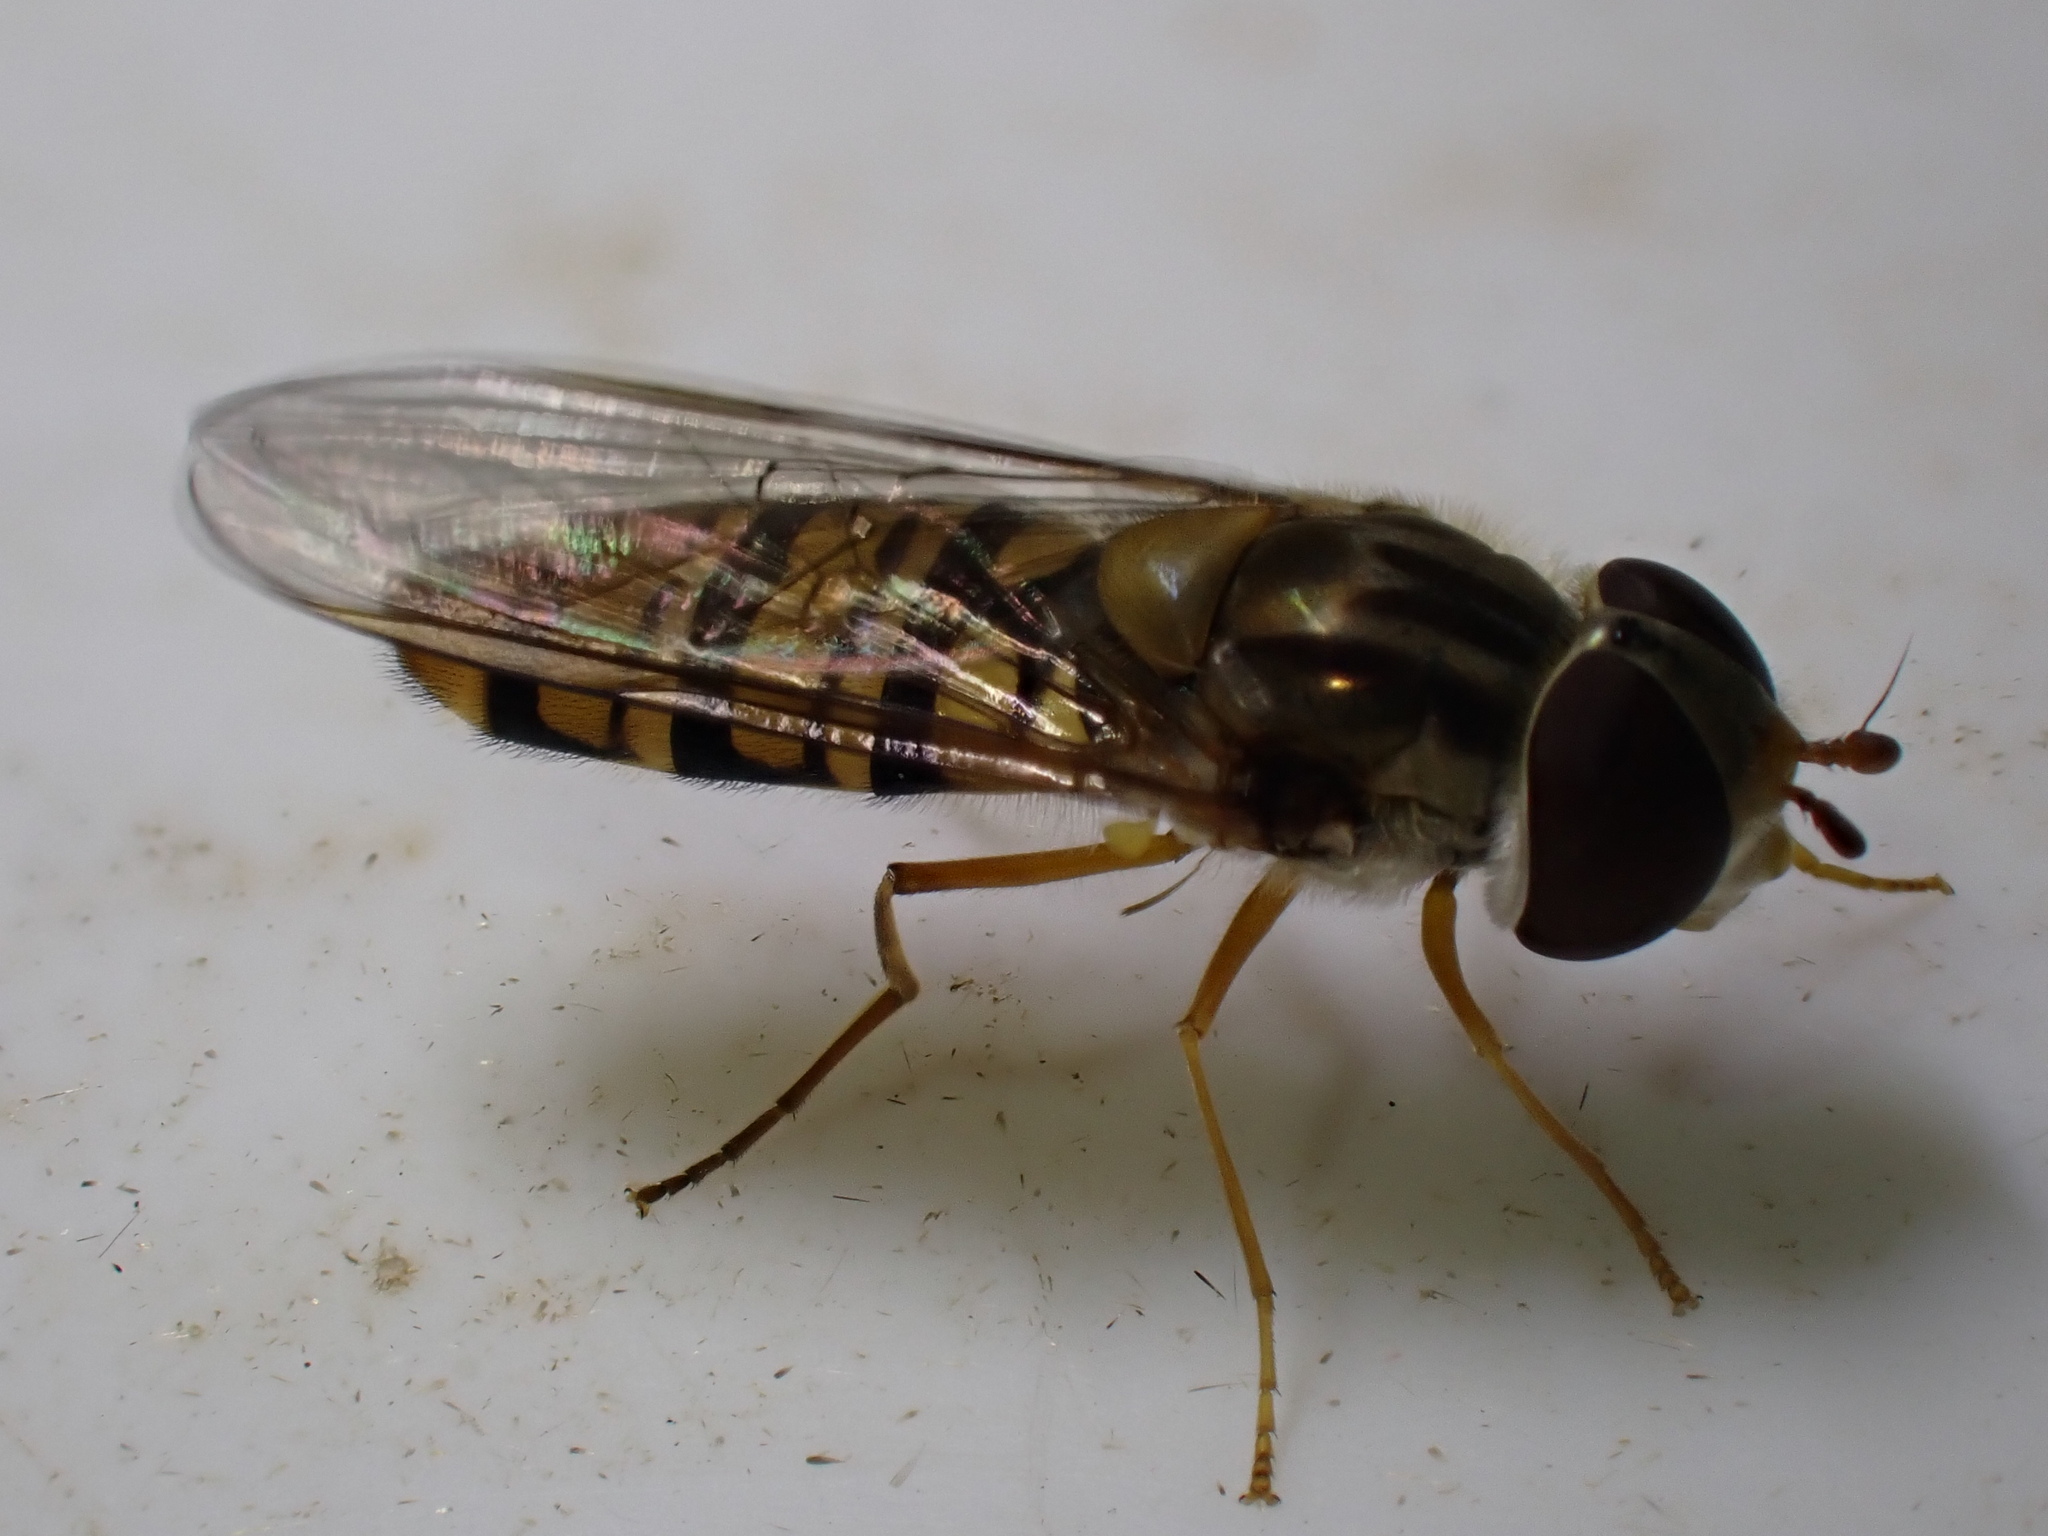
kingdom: Animalia
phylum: Arthropoda
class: Insecta
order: Diptera
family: Syrphidae
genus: Episyrphus
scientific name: Episyrphus balteatus
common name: Marmalade hoverfly
